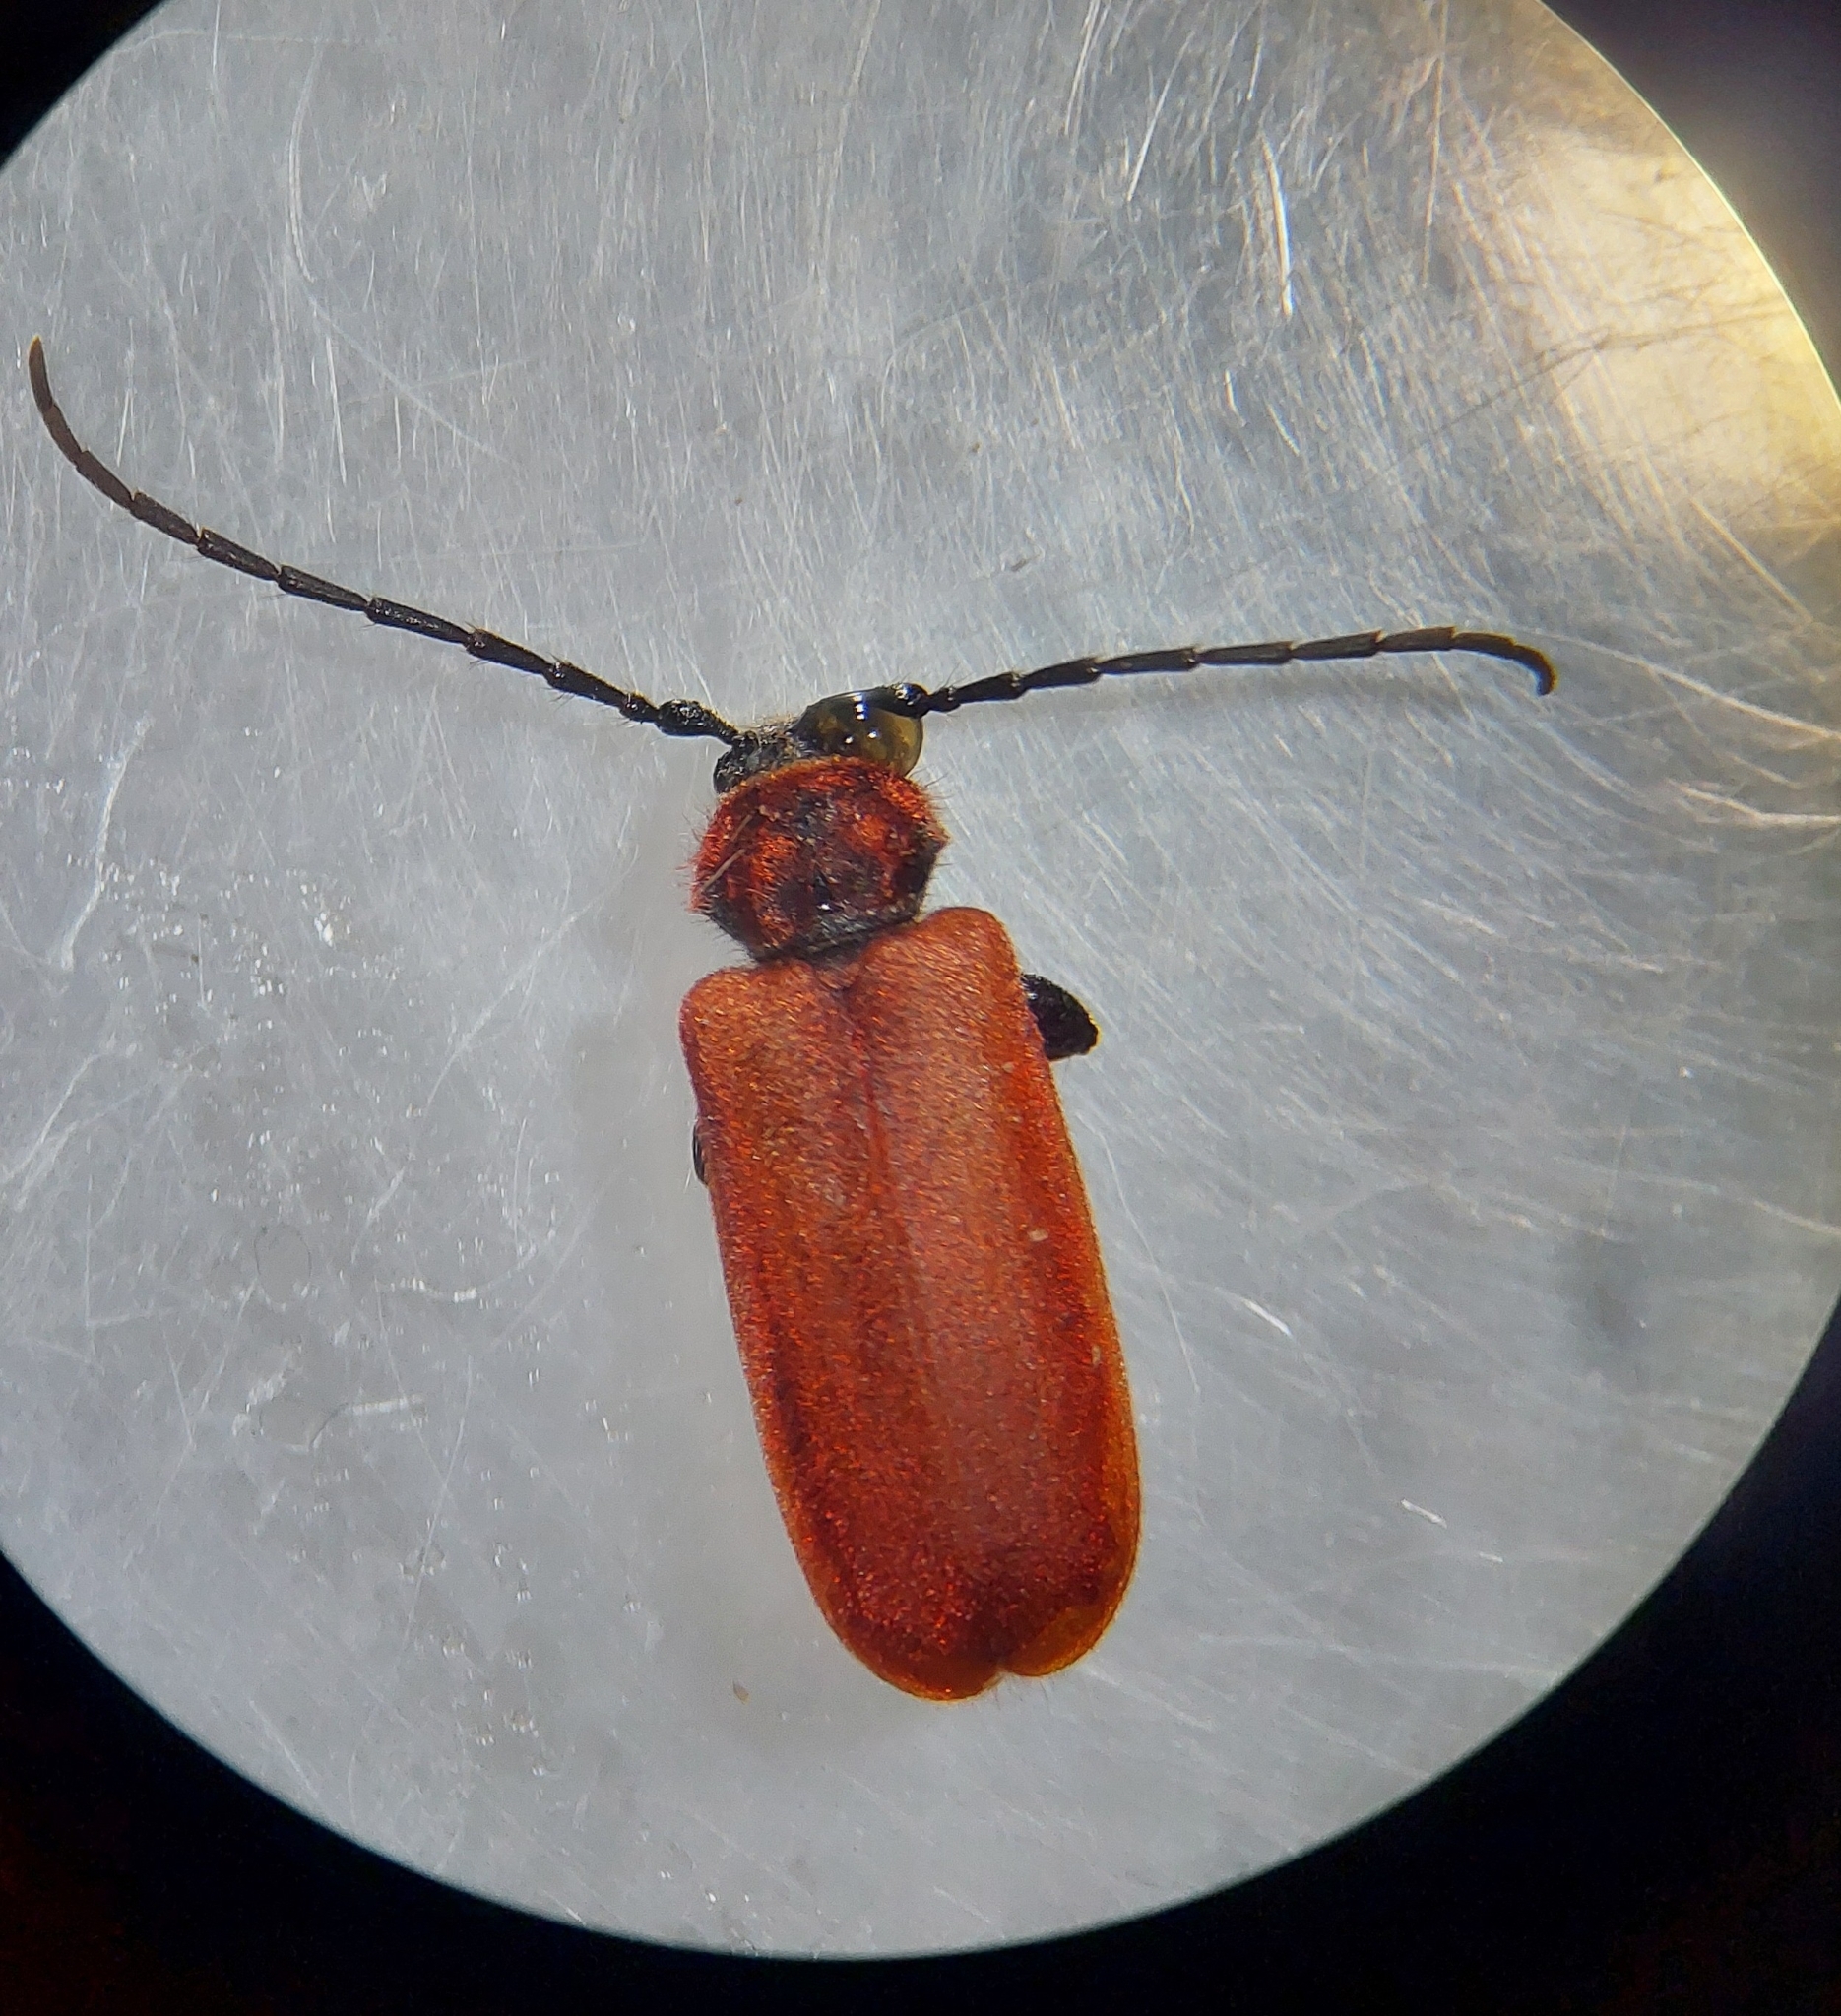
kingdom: Animalia
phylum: Arthropoda
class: Insecta
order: Coleoptera
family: Cerambycidae
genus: Pyrrhidium
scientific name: Pyrrhidium sanguineum
